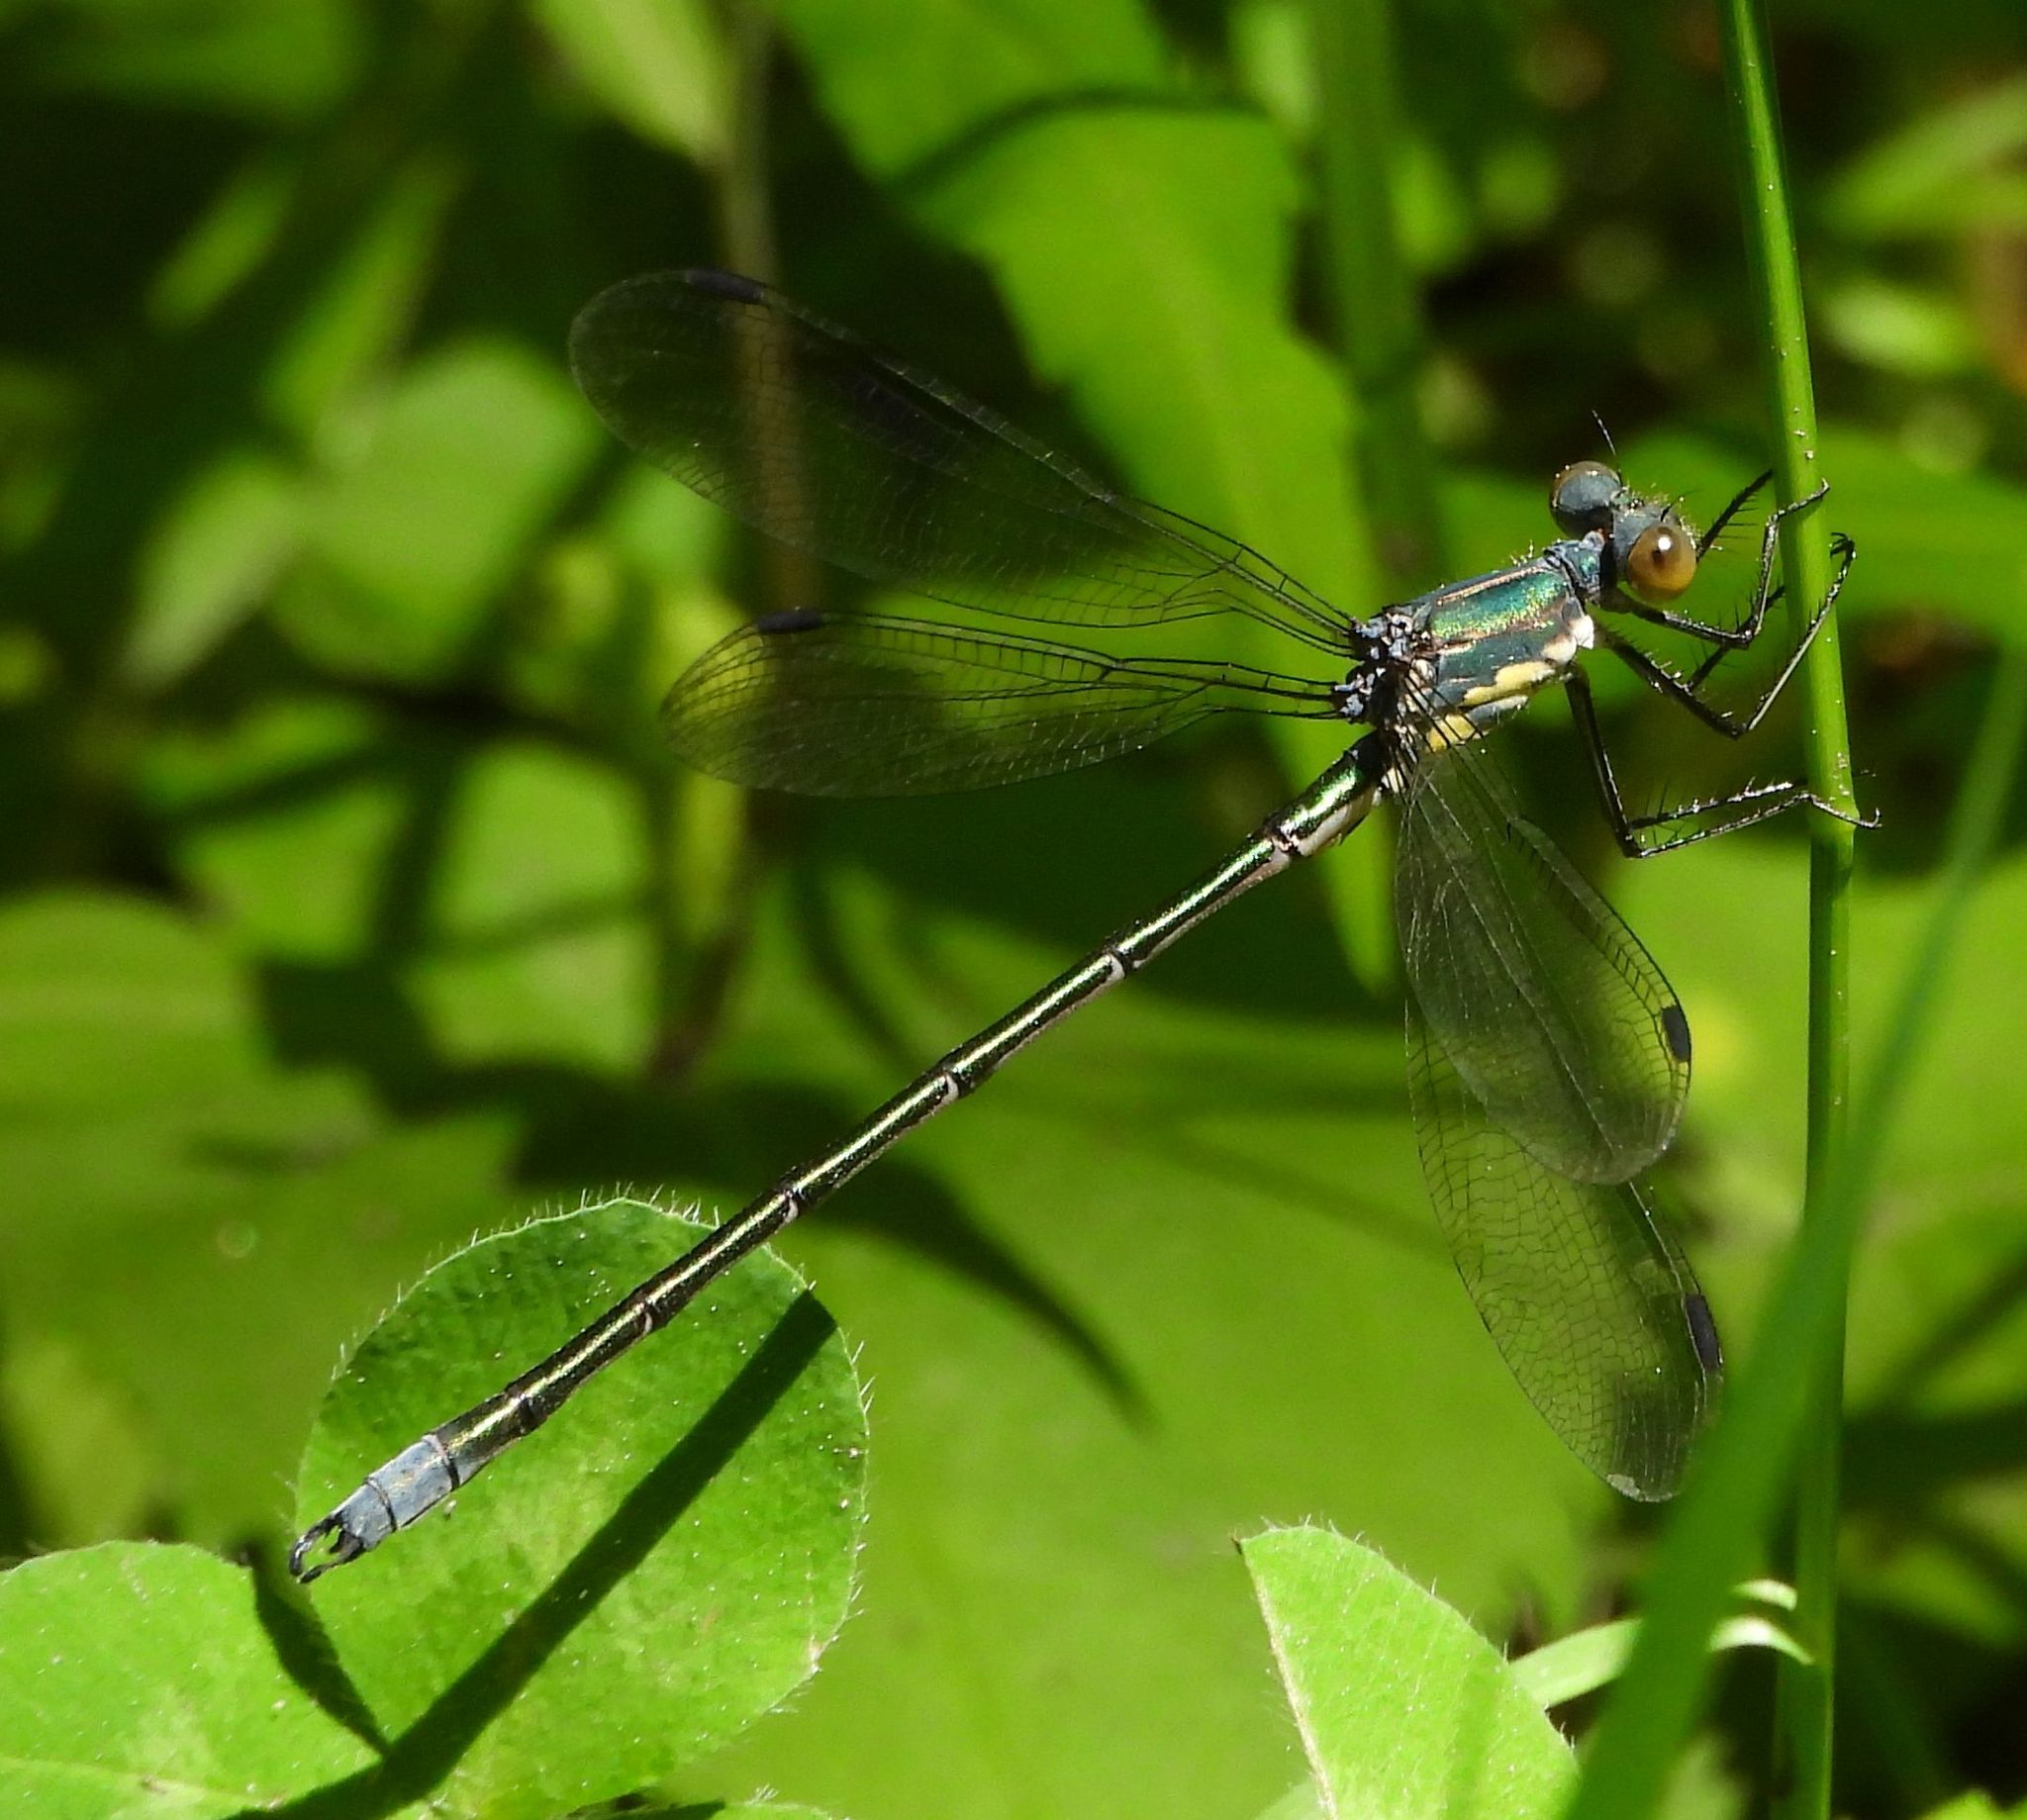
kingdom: Animalia
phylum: Arthropoda
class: Insecta
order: Odonata
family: Lestidae
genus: Lestes
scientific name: Lestes eurinus
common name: Amber-winged spreadwing
